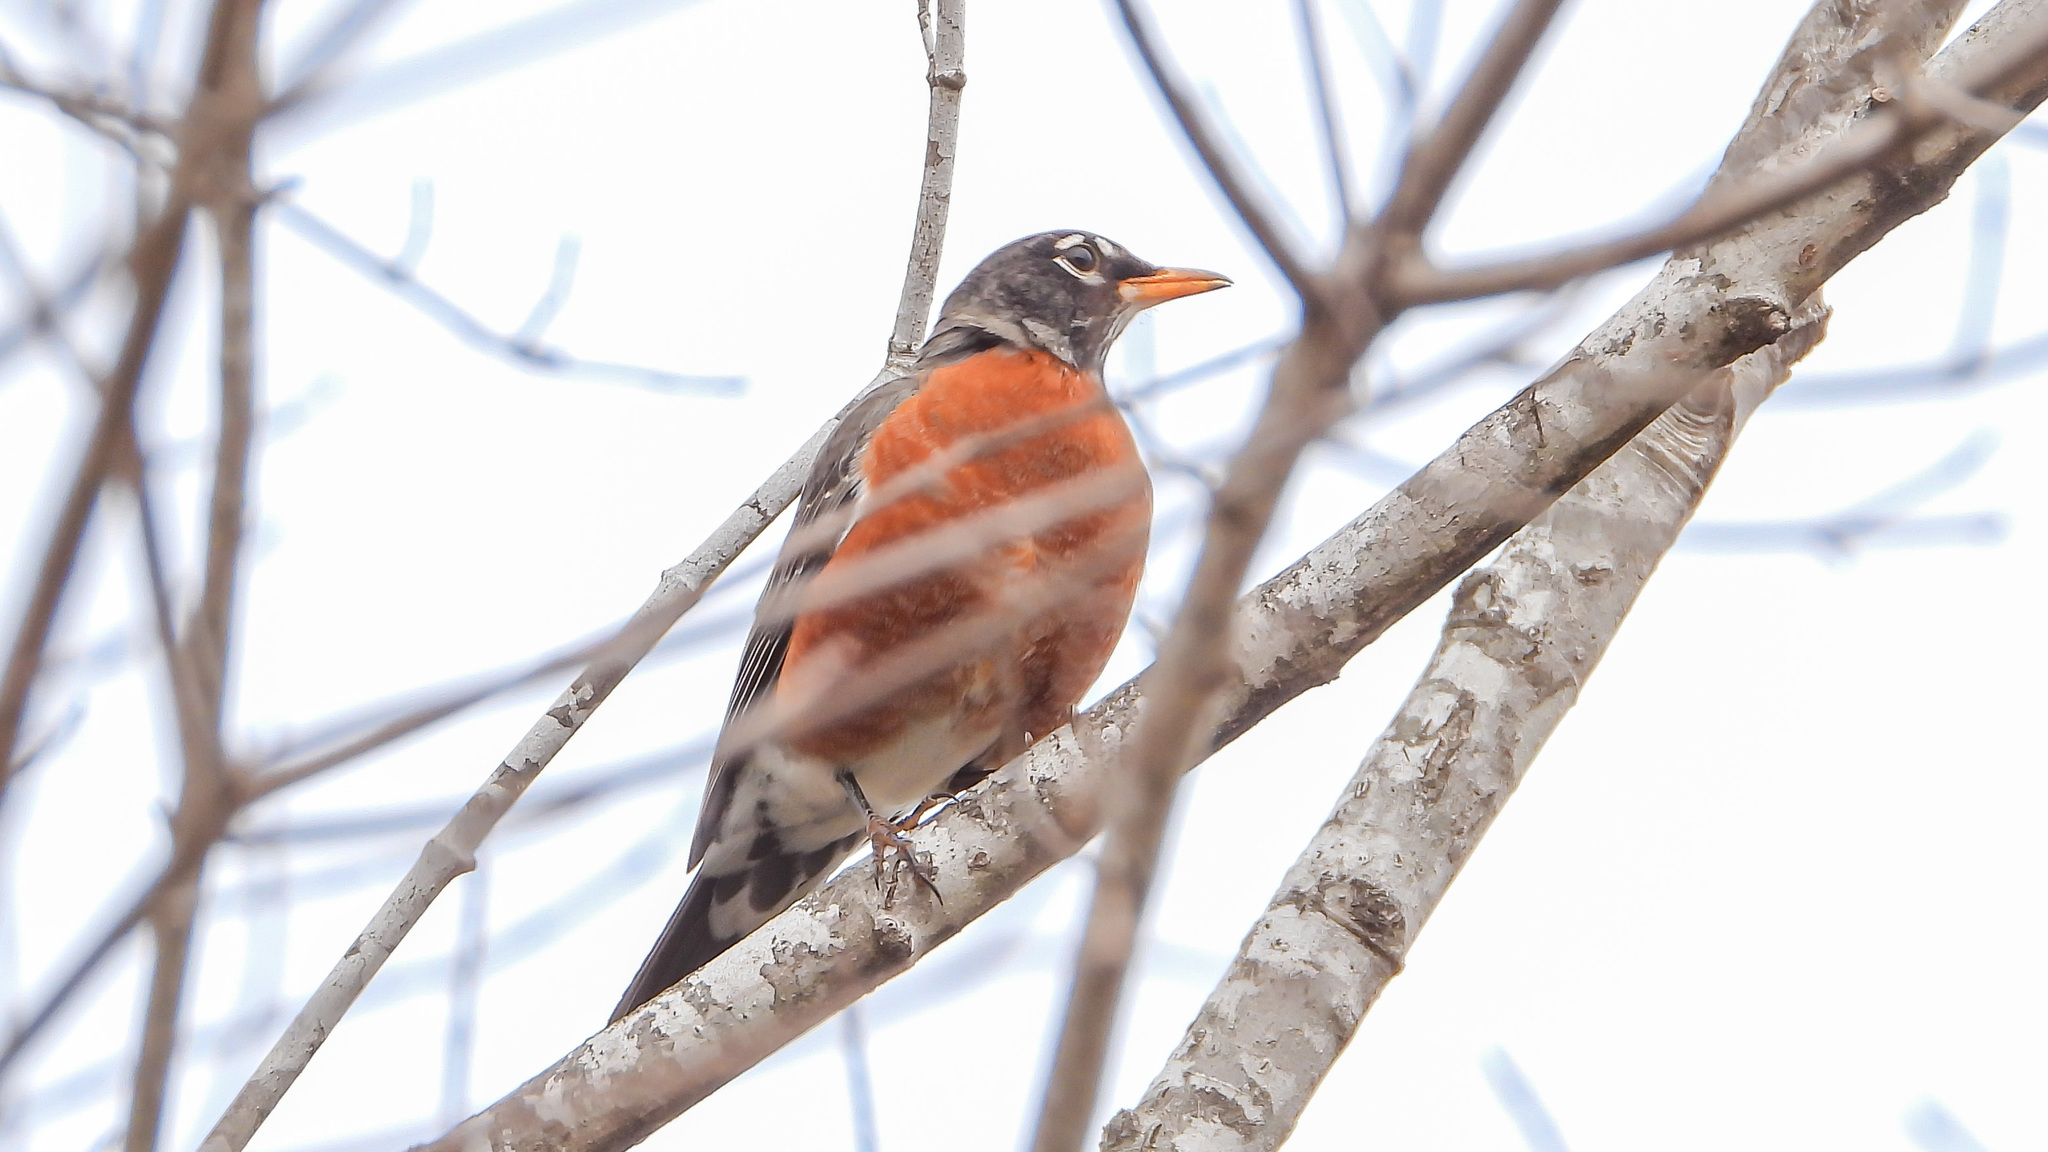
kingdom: Animalia
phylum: Chordata
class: Aves
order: Passeriformes
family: Turdidae
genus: Turdus
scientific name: Turdus migratorius
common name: American robin
